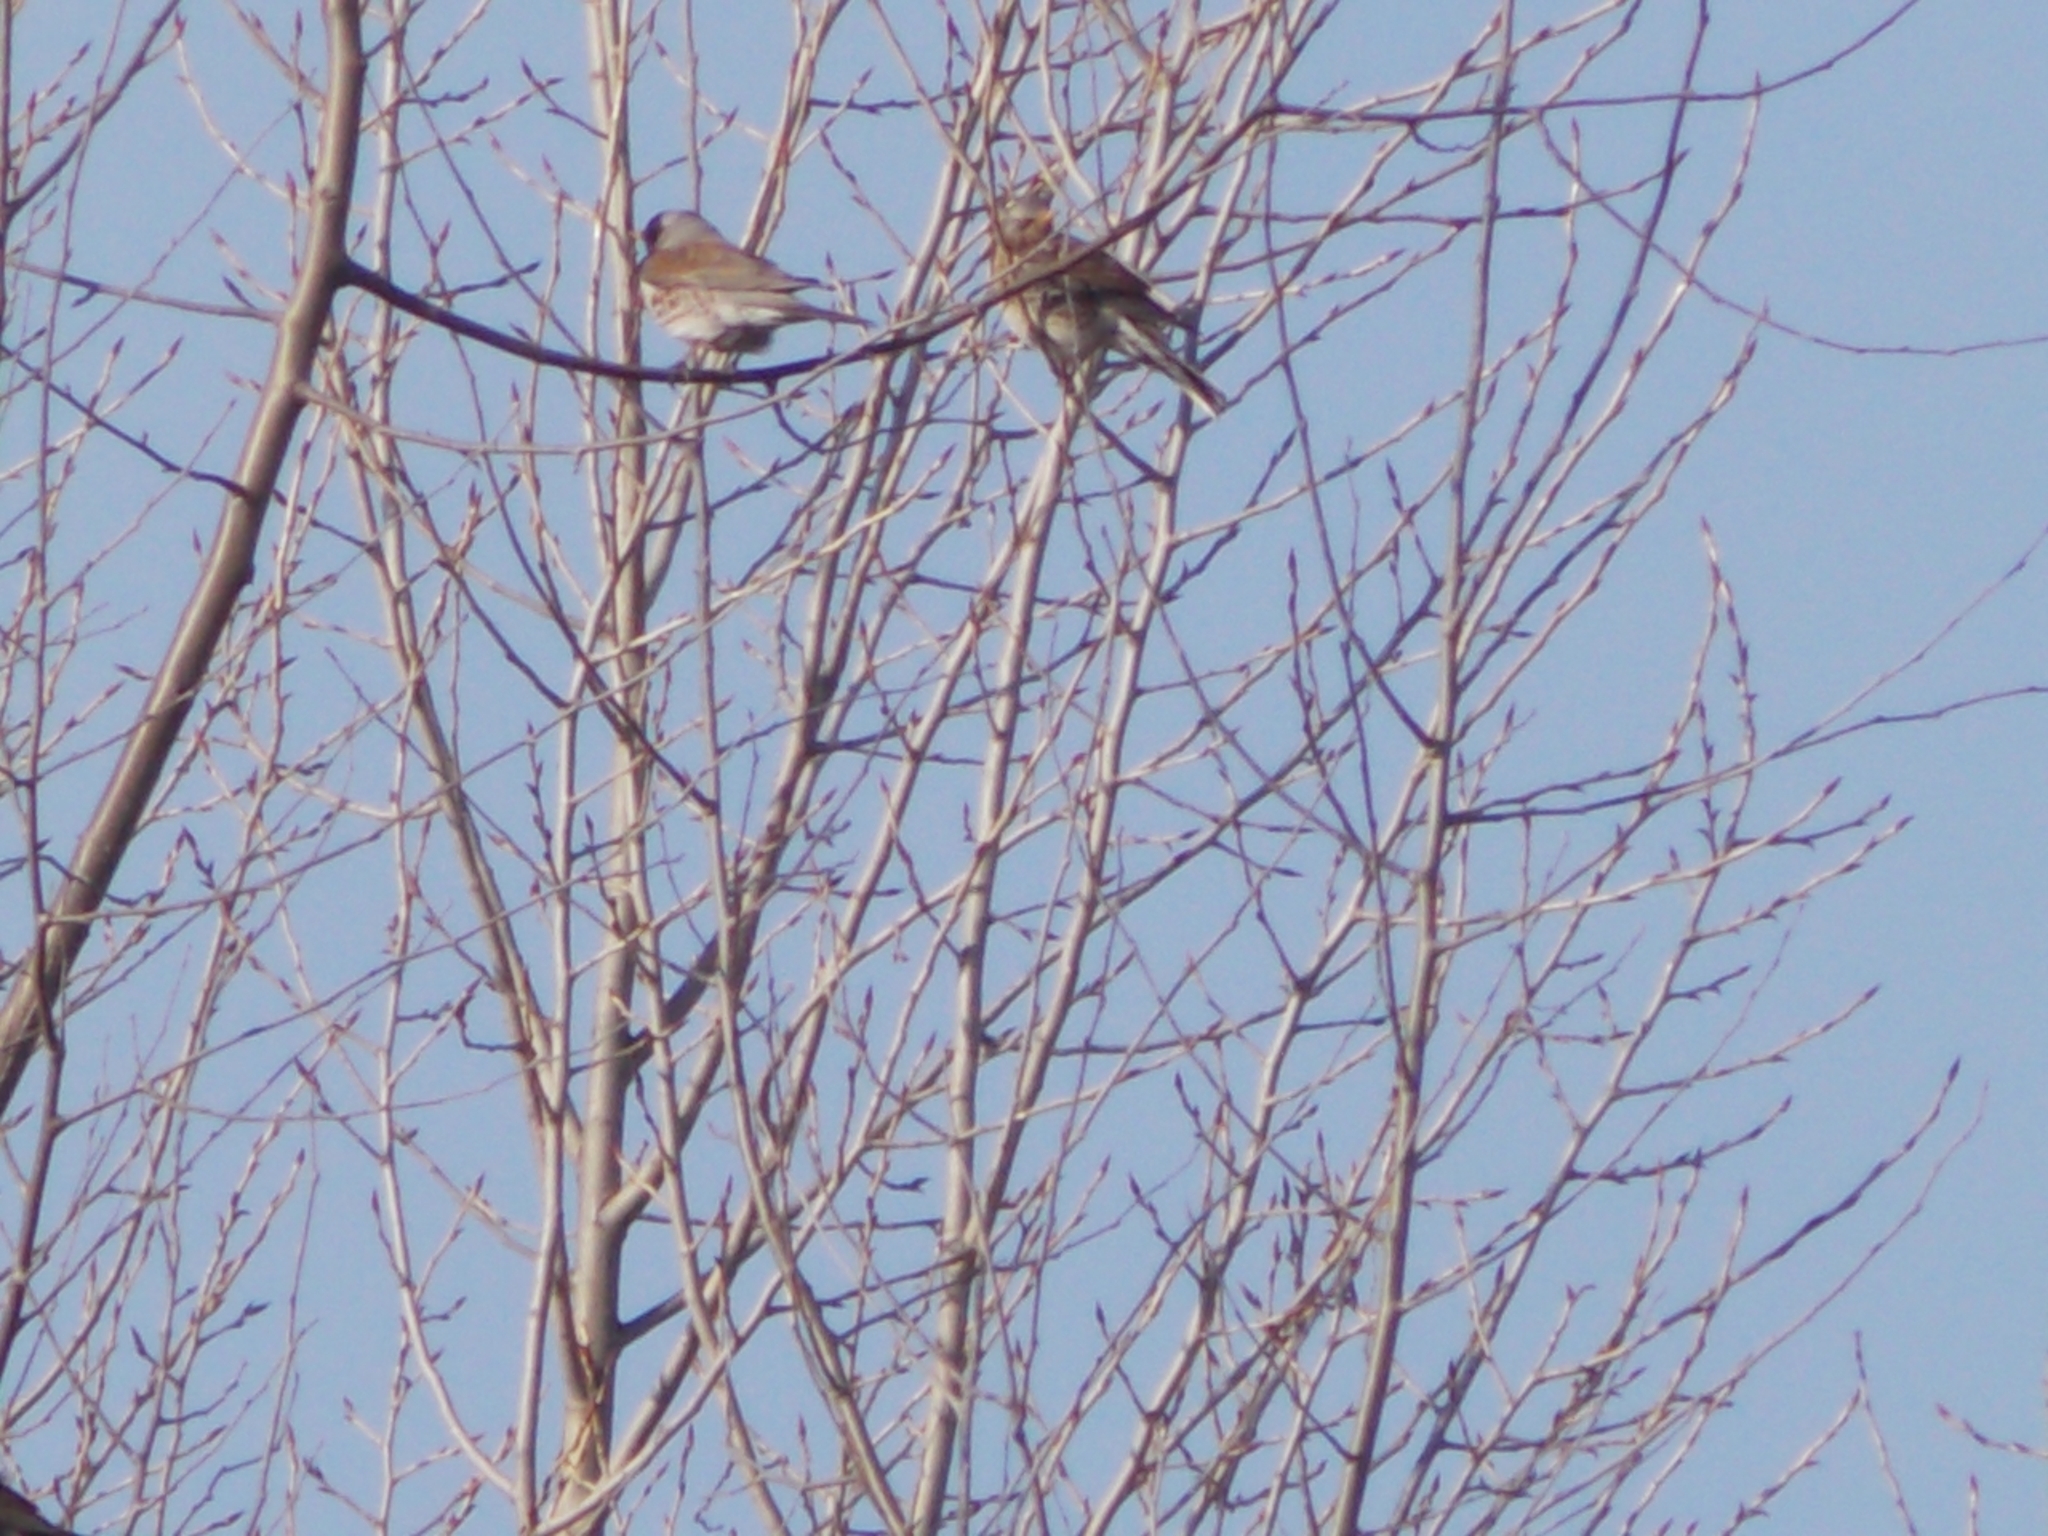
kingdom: Animalia
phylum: Chordata
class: Aves
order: Passeriformes
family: Turdidae
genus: Turdus
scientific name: Turdus pilaris
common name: Fieldfare
